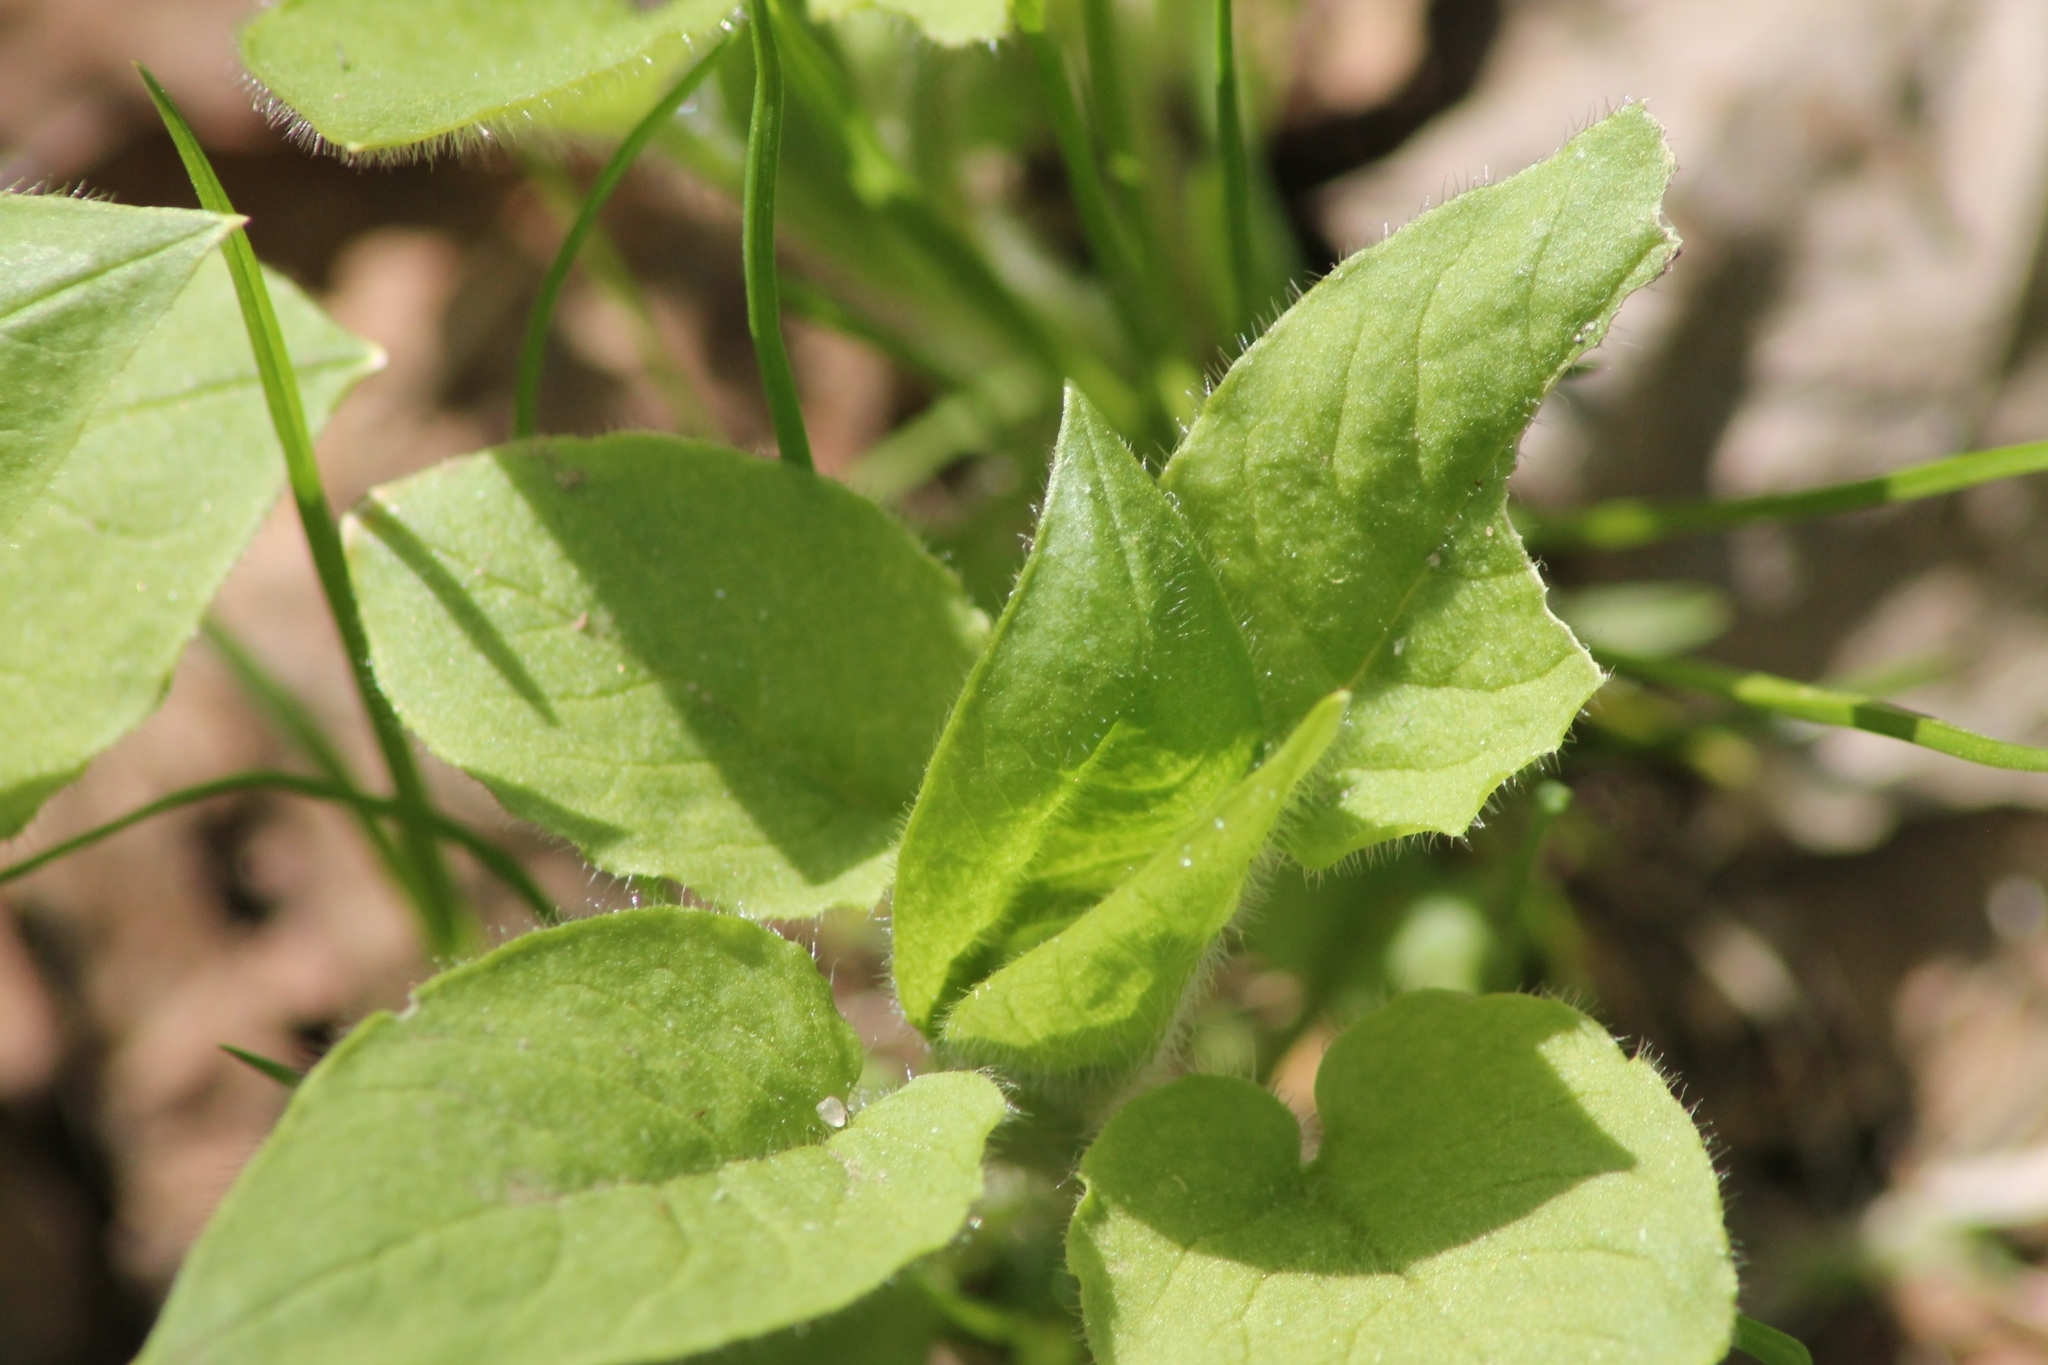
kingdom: Plantae
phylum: Tracheophyta
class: Magnoliopsida
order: Caryophyllales
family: Caryophyllaceae
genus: Stellaria
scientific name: Stellaria nemorum
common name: Wood stitchwort
